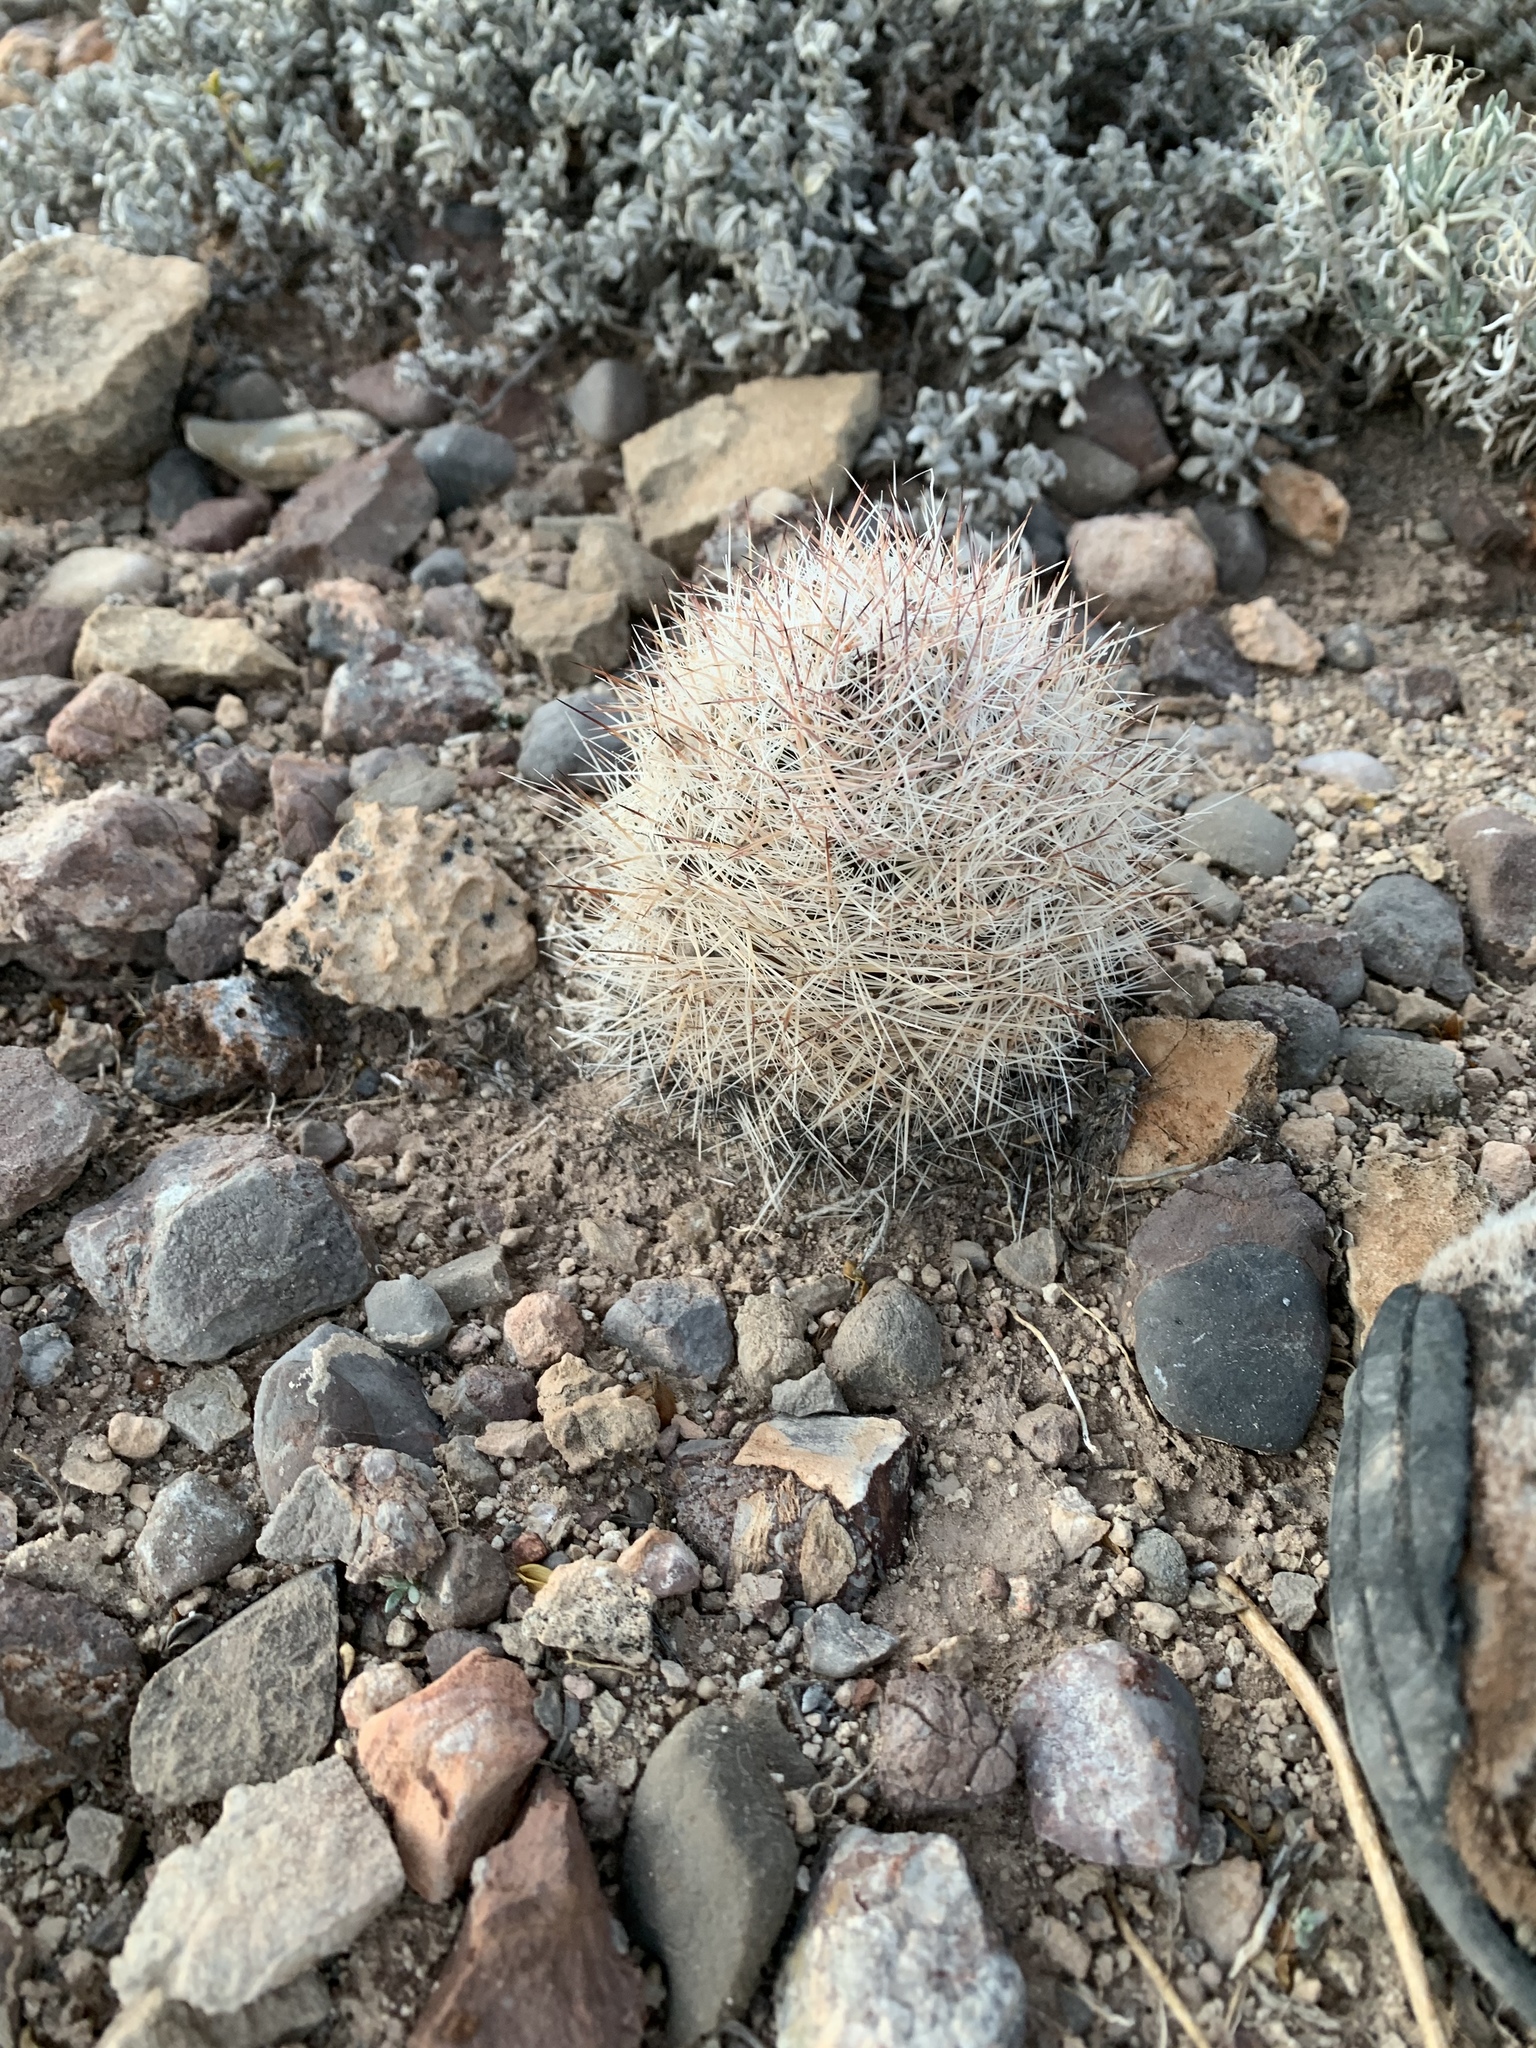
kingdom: Plantae
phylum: Tracheophyta
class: Magnoliopsida
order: Caryophyllales
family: Cactaceae
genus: Pelecyphora
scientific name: Pelecyphora vivipara
